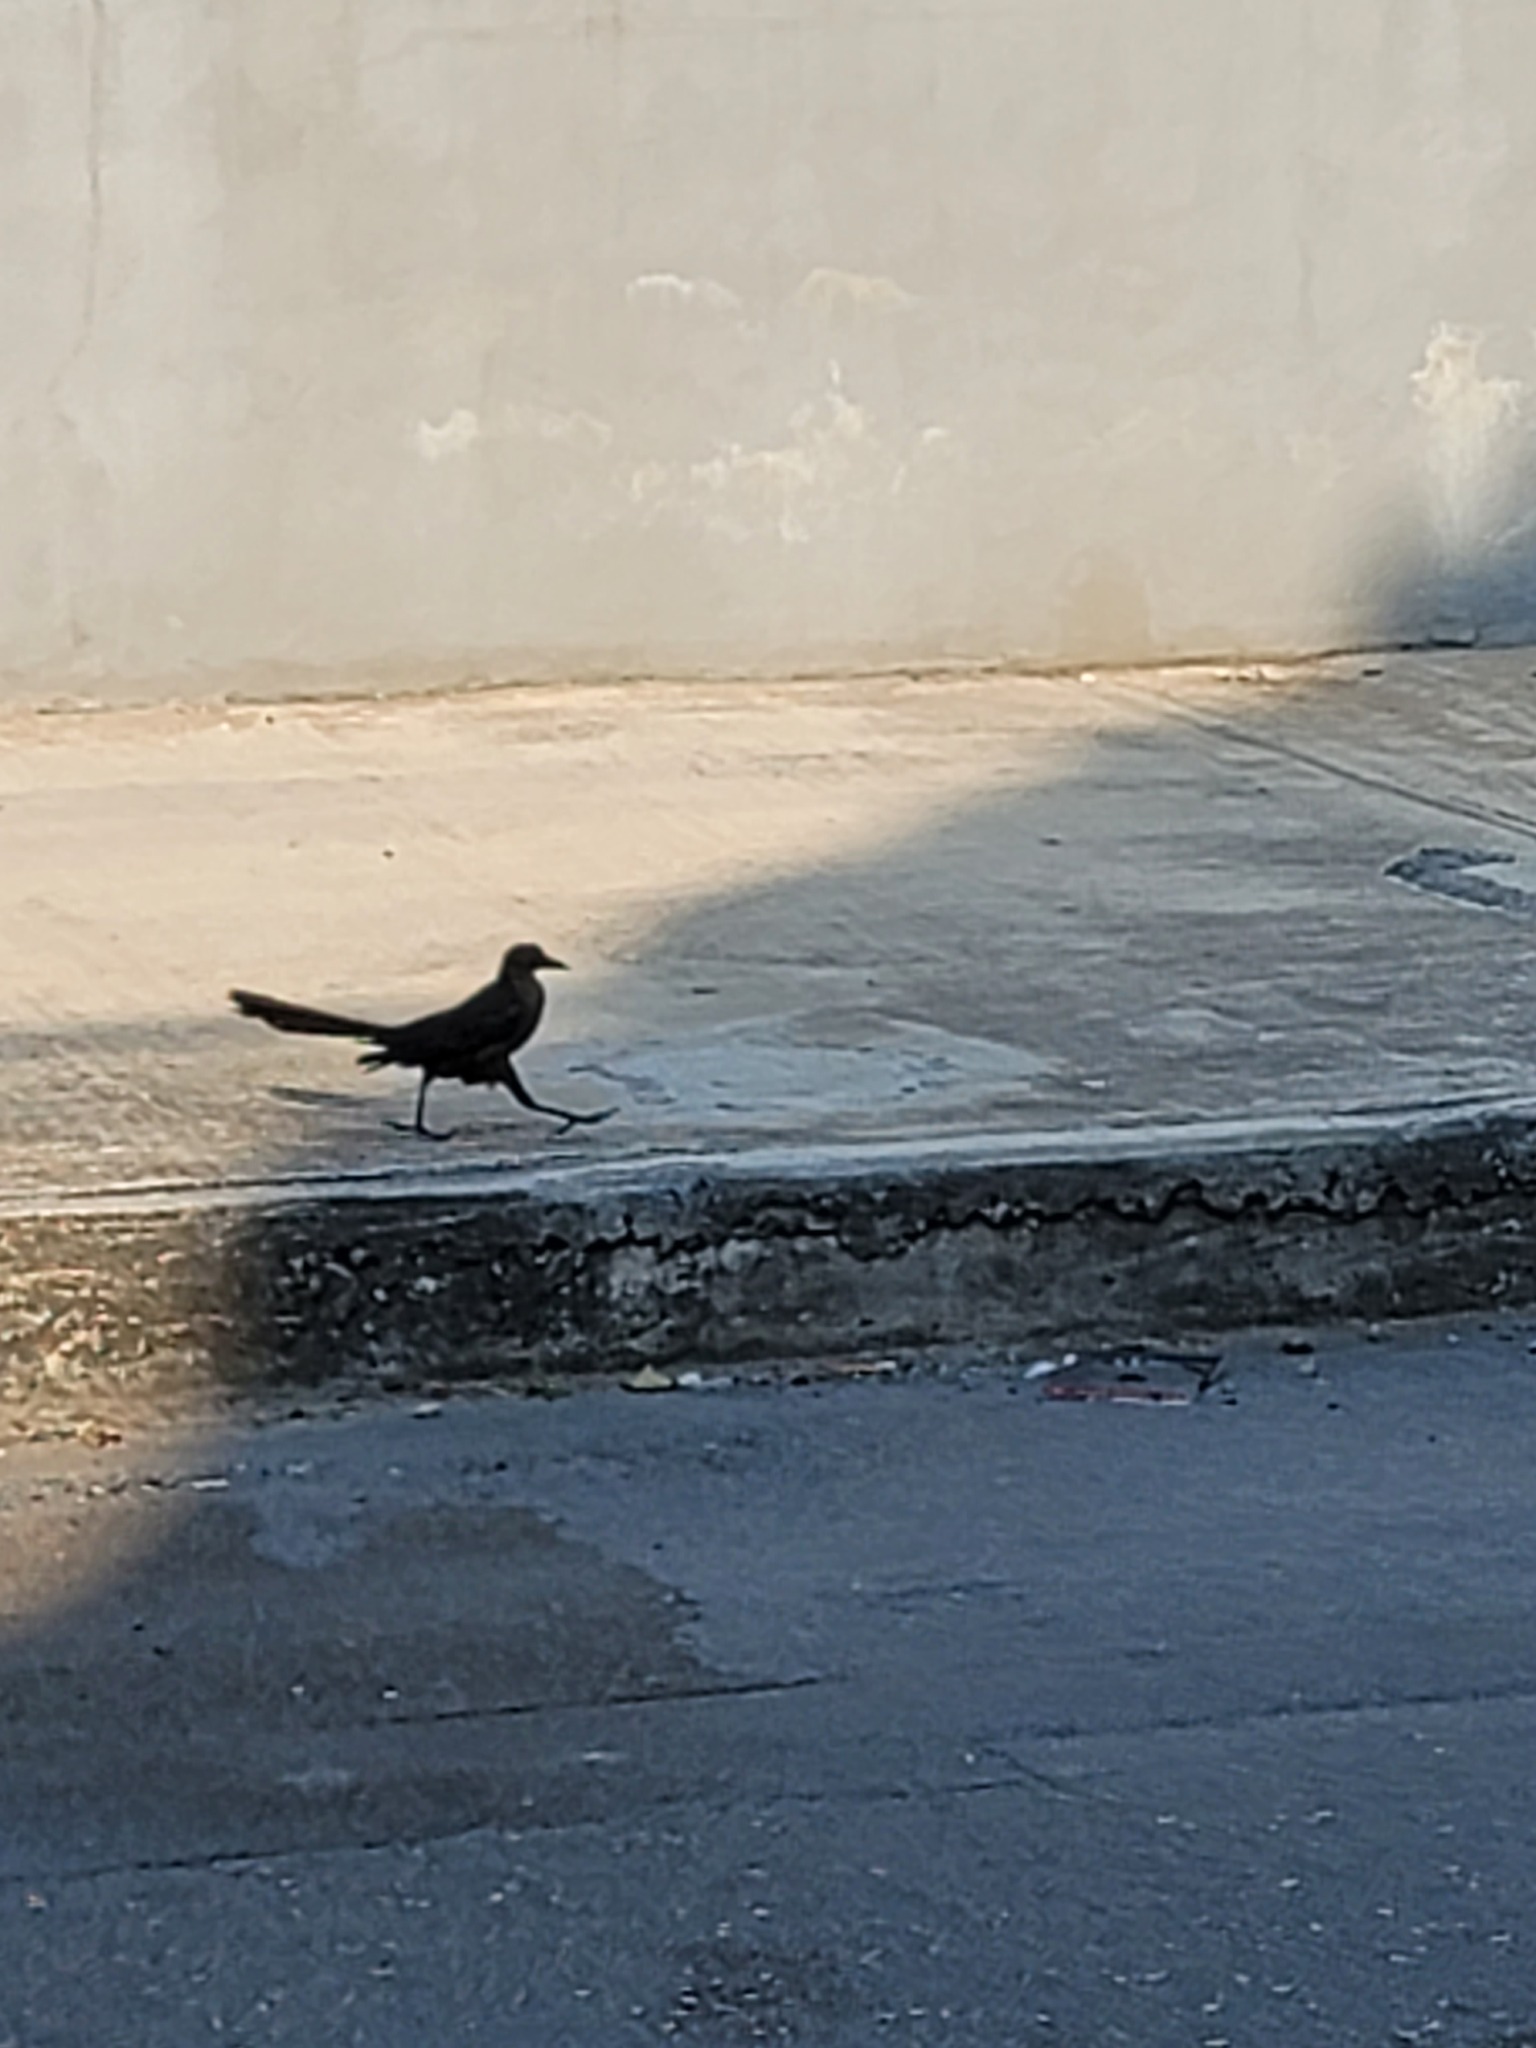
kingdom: Animalia
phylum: Chordata
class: Aves
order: Passeriformes
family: Icteridae
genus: Quiscalus
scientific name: Quiscalus mexicanus
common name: Great-tailed grackle
